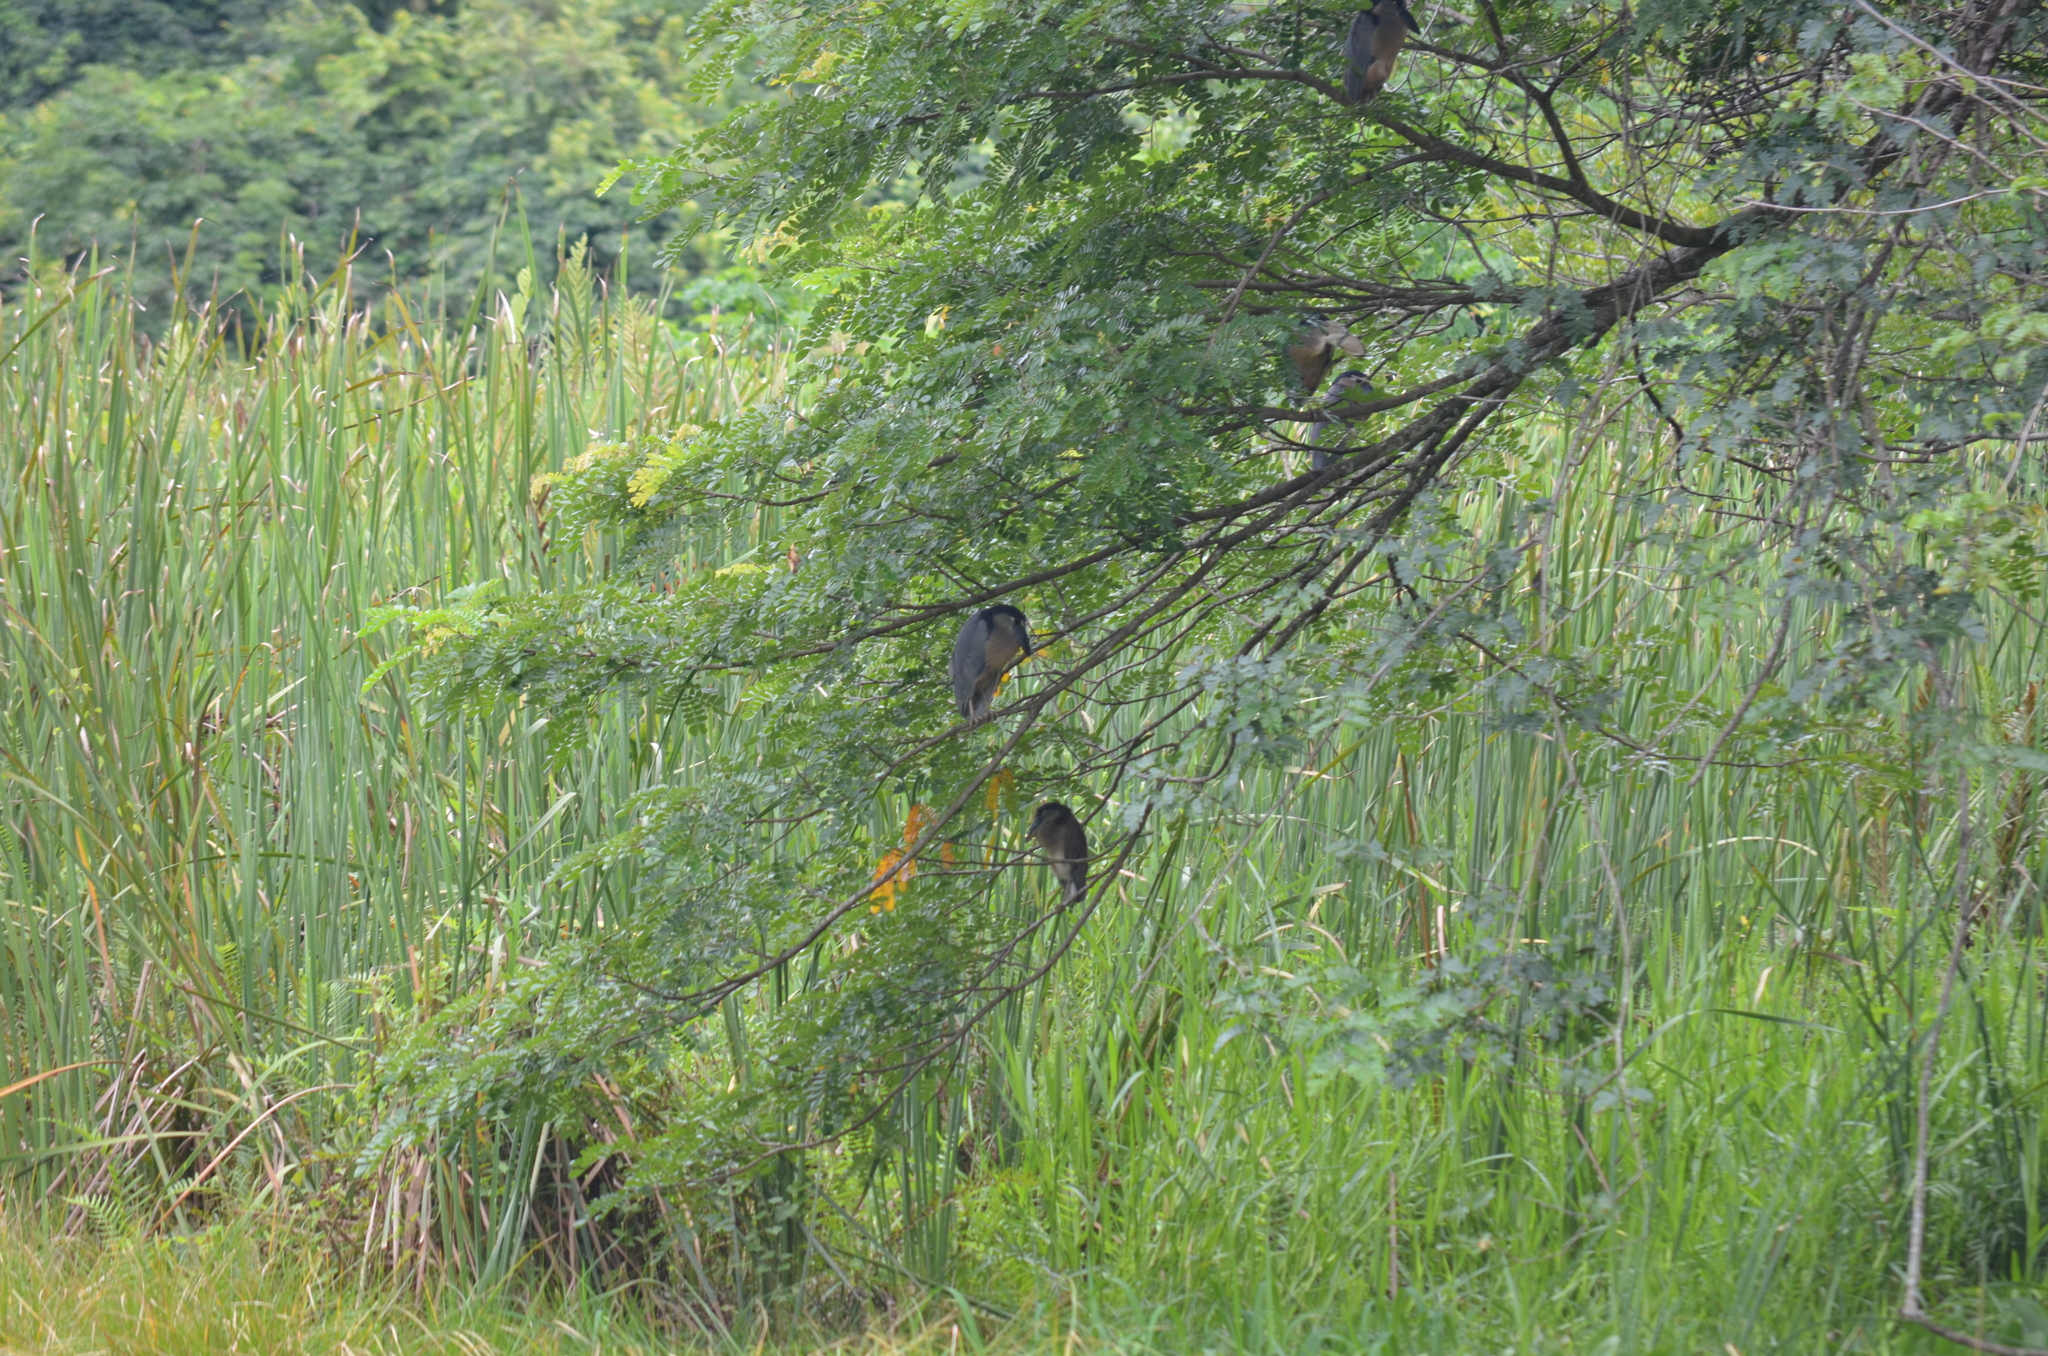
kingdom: Animalia
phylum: Chordata
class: Aves
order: Pelecaniformes
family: Ardeidae
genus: Cochlearius
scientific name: Cochlearius cochlearius
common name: Boat-billed heron
